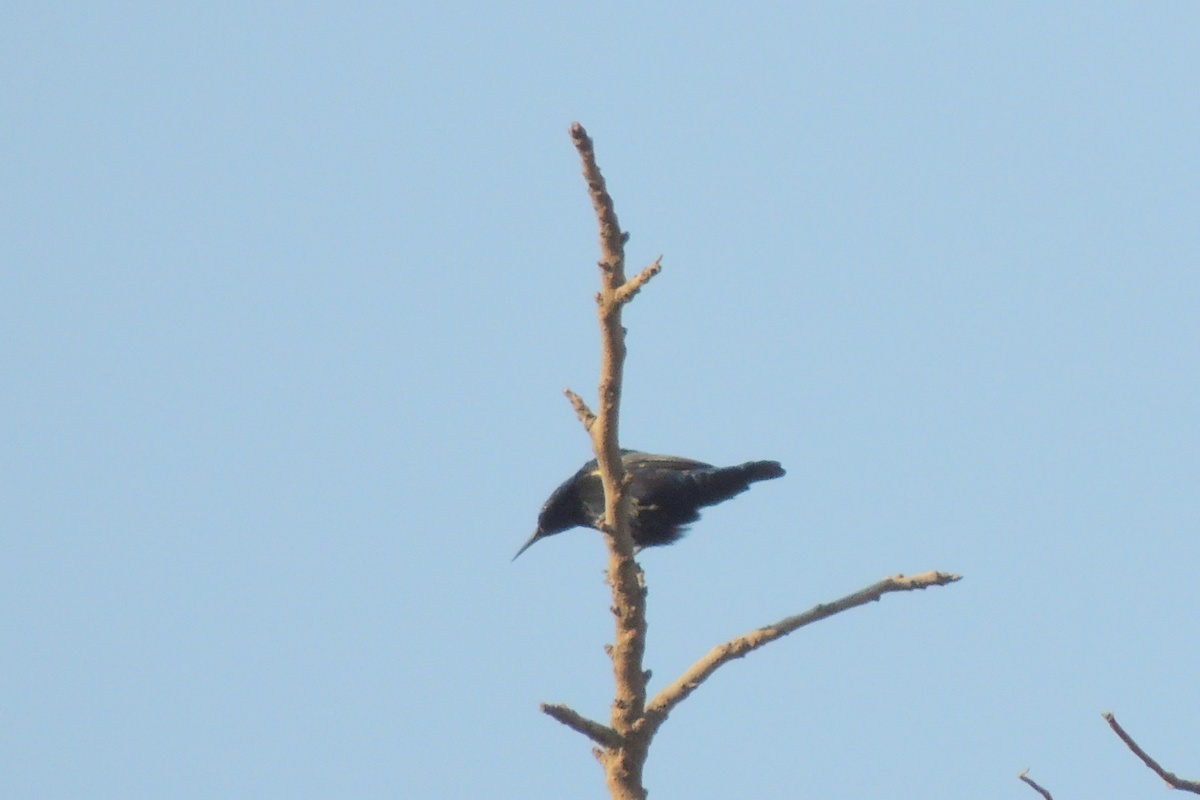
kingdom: Animalia
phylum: Chordata
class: Aves
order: Passeriformes
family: Nectariniidae
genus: Cinnyris
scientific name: Cinnyris asiaticus
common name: Purple sunbird
